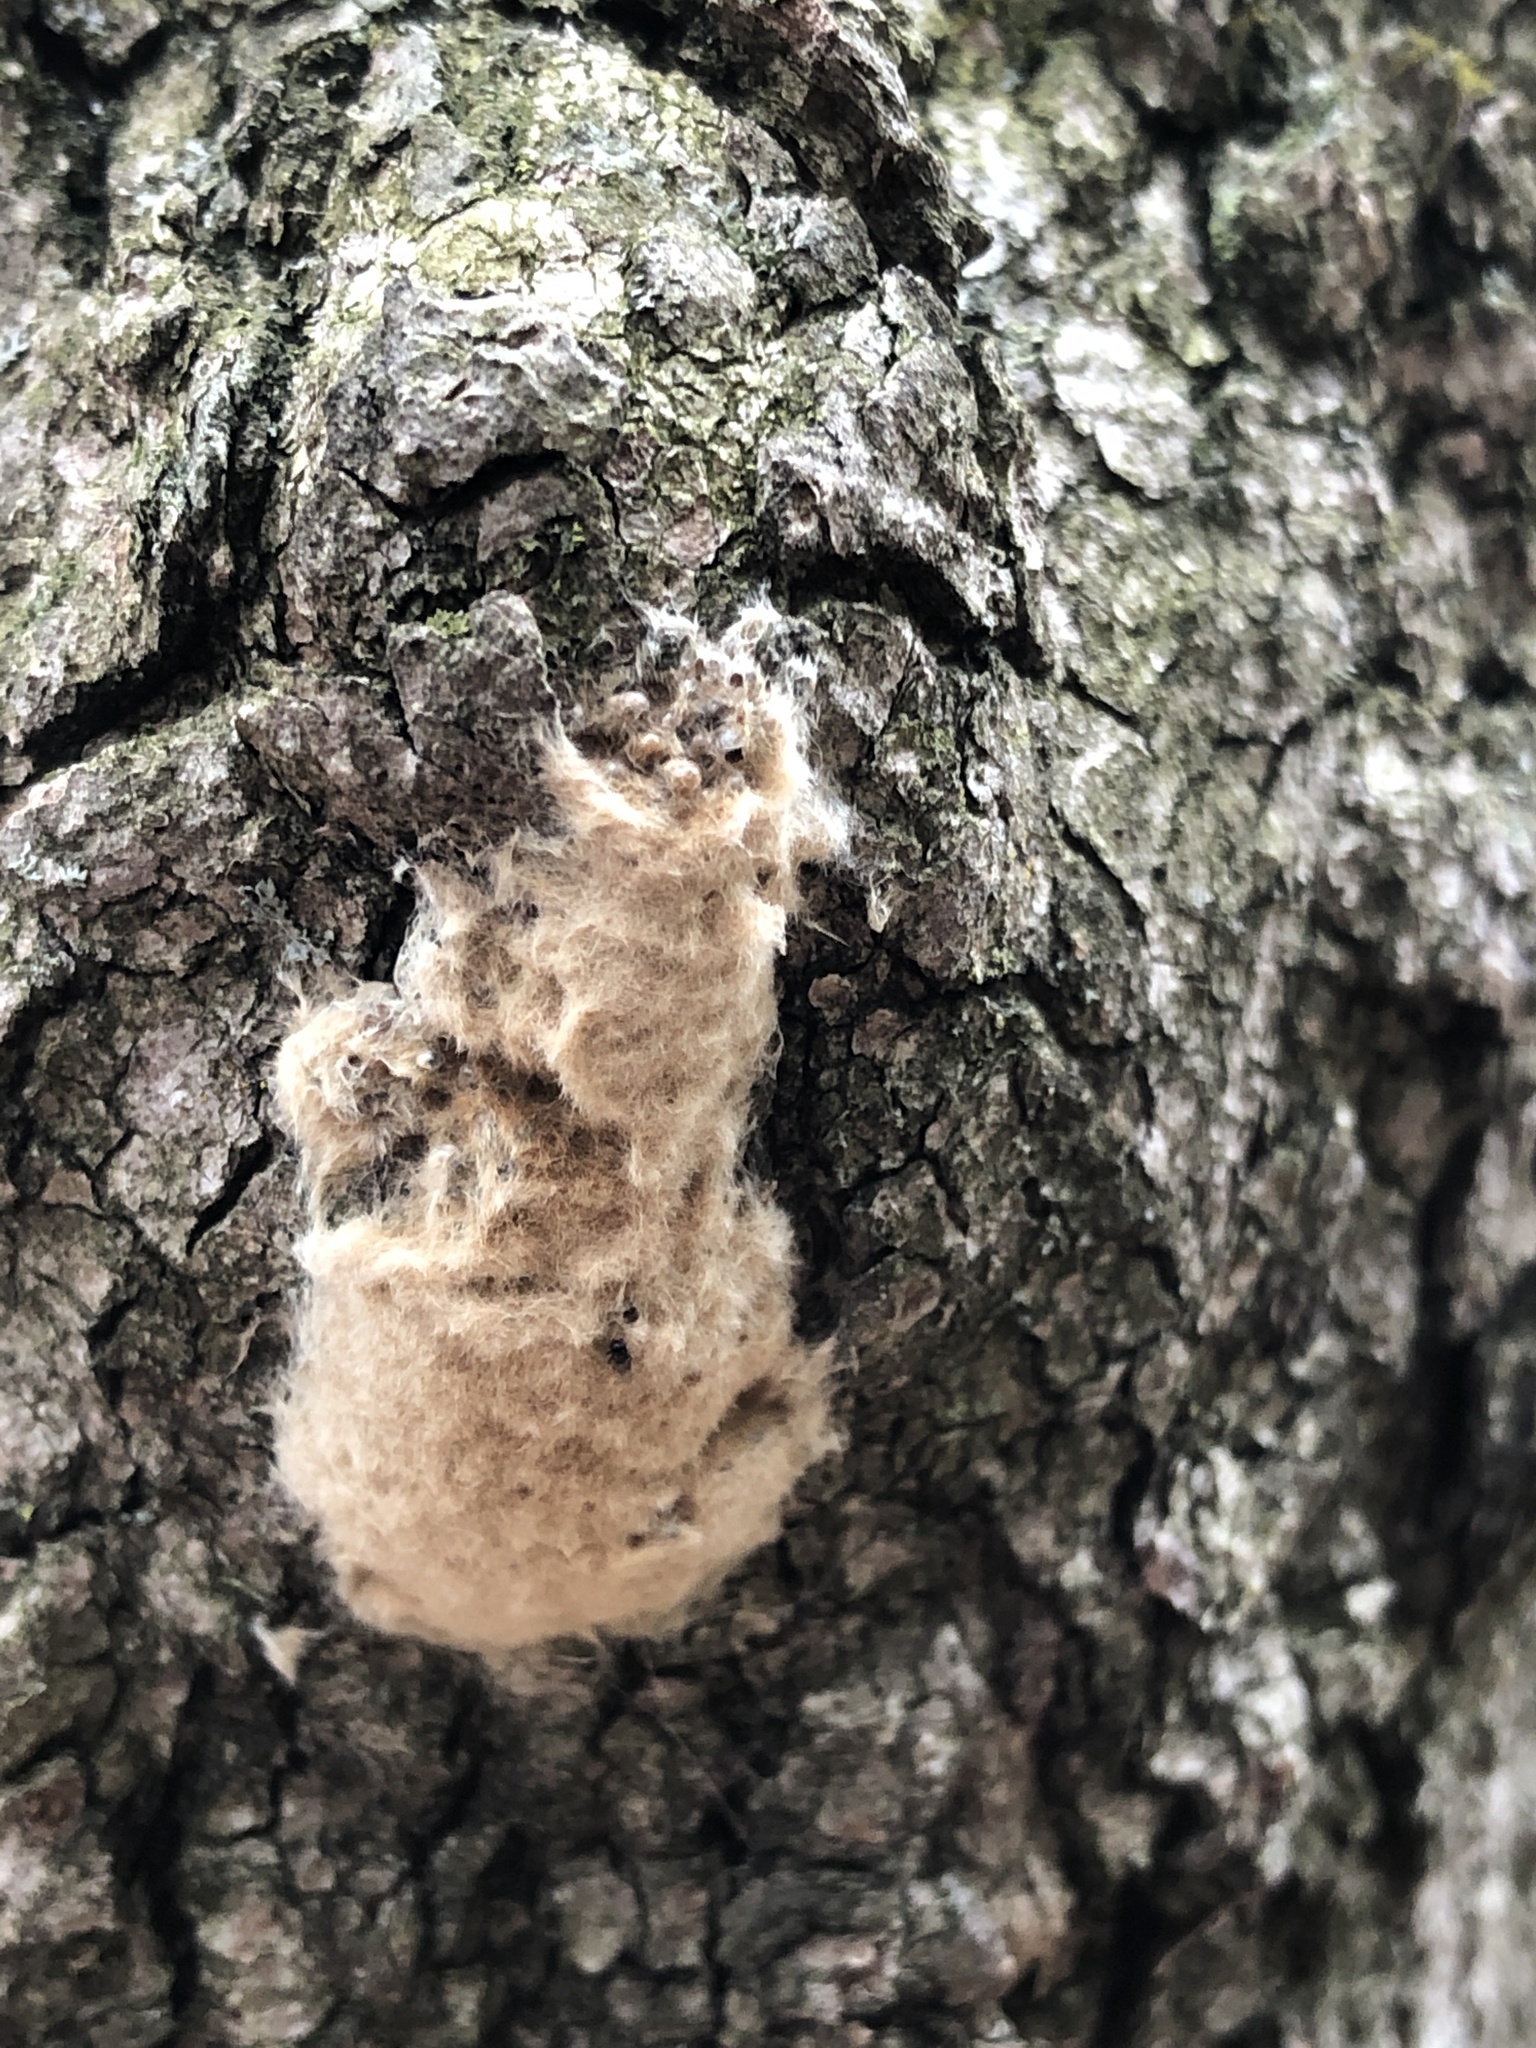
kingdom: Animalia
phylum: Arthropoda
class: Insecta
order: Lepidoptera
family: Erebidae
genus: Lymantria
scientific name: Lymantria dispar
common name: Gypsy moth
